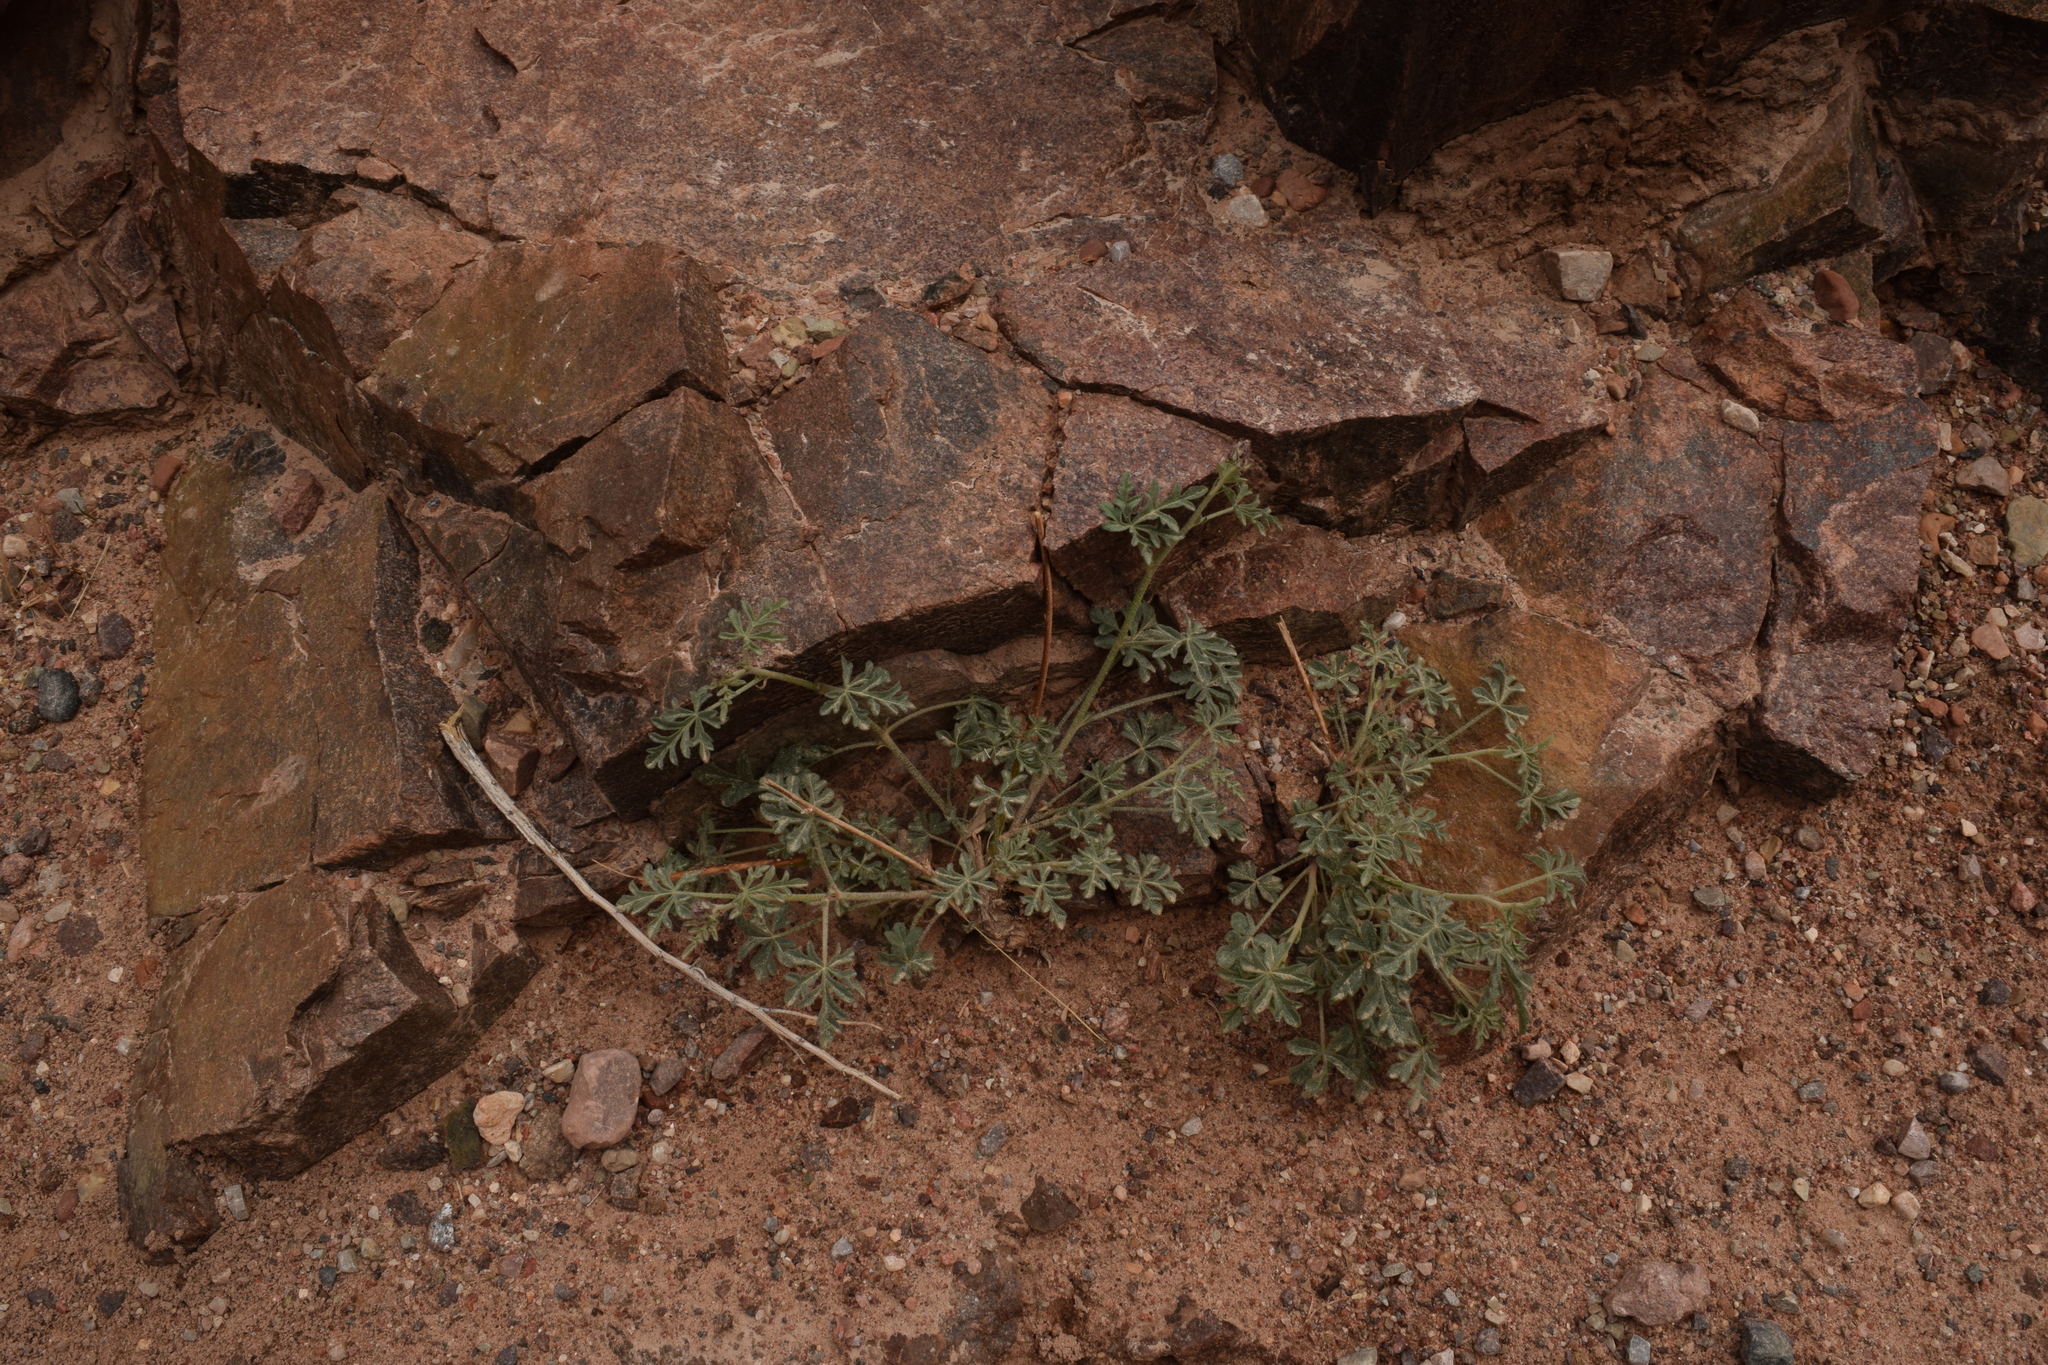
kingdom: Plantae
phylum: Tracheophyta
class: Magnoliopsida
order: Malvales
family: Malvaceae
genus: Sphaeralcea
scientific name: Sphaeralcea grossulariifolia
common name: Current-leaf globe-mallow
